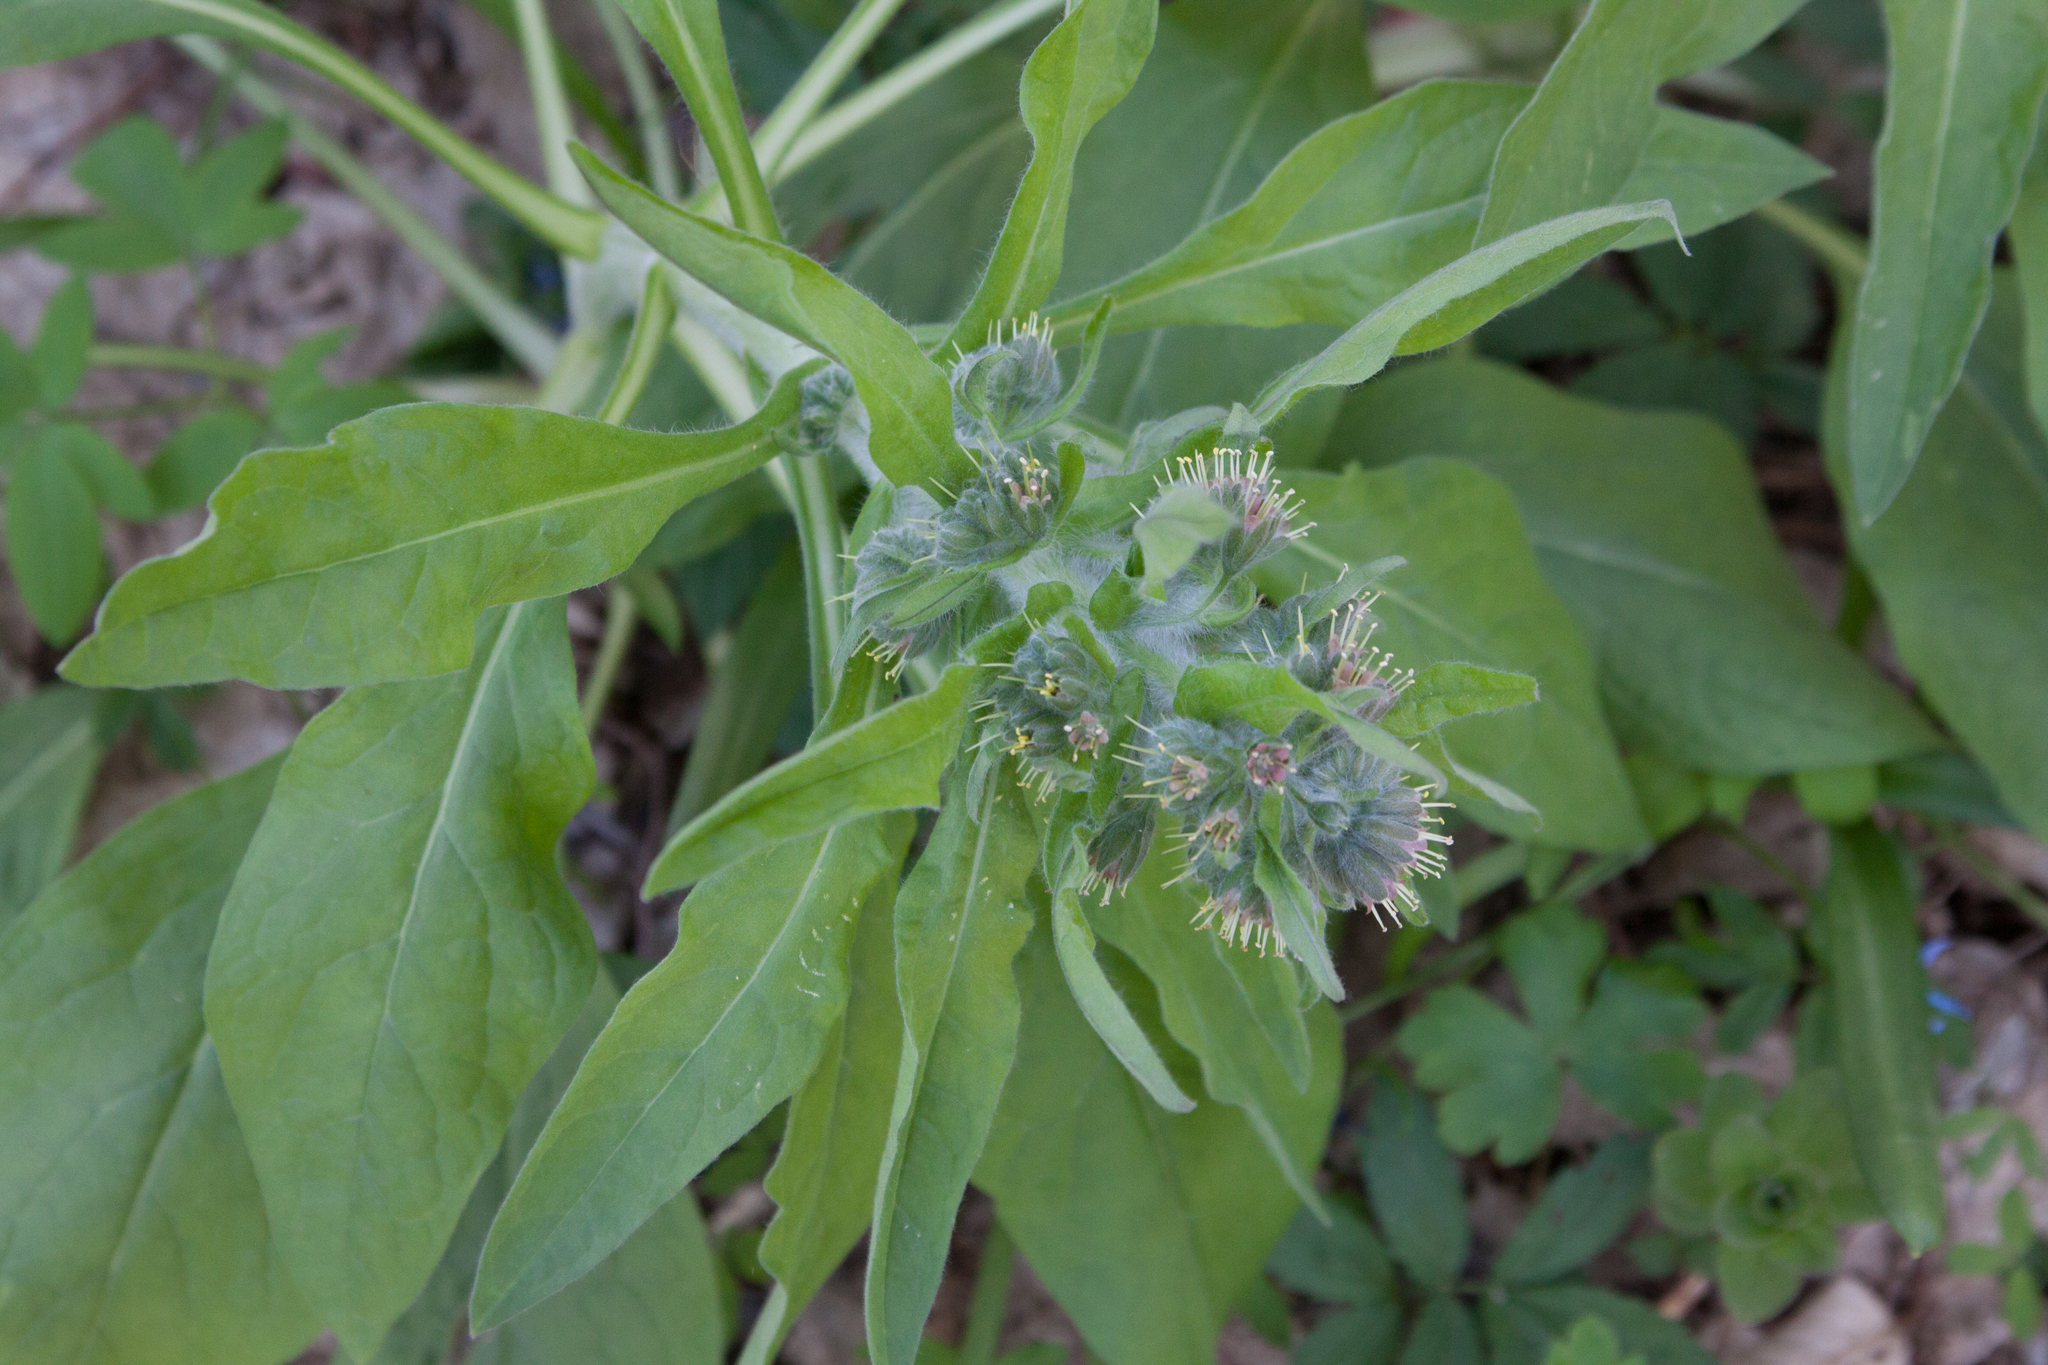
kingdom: Plantae
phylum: Tracheophyta
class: Magnoliopsida
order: Boraginales
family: Boraginaceae
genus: Solenanthus
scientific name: Solenanthus dubius
